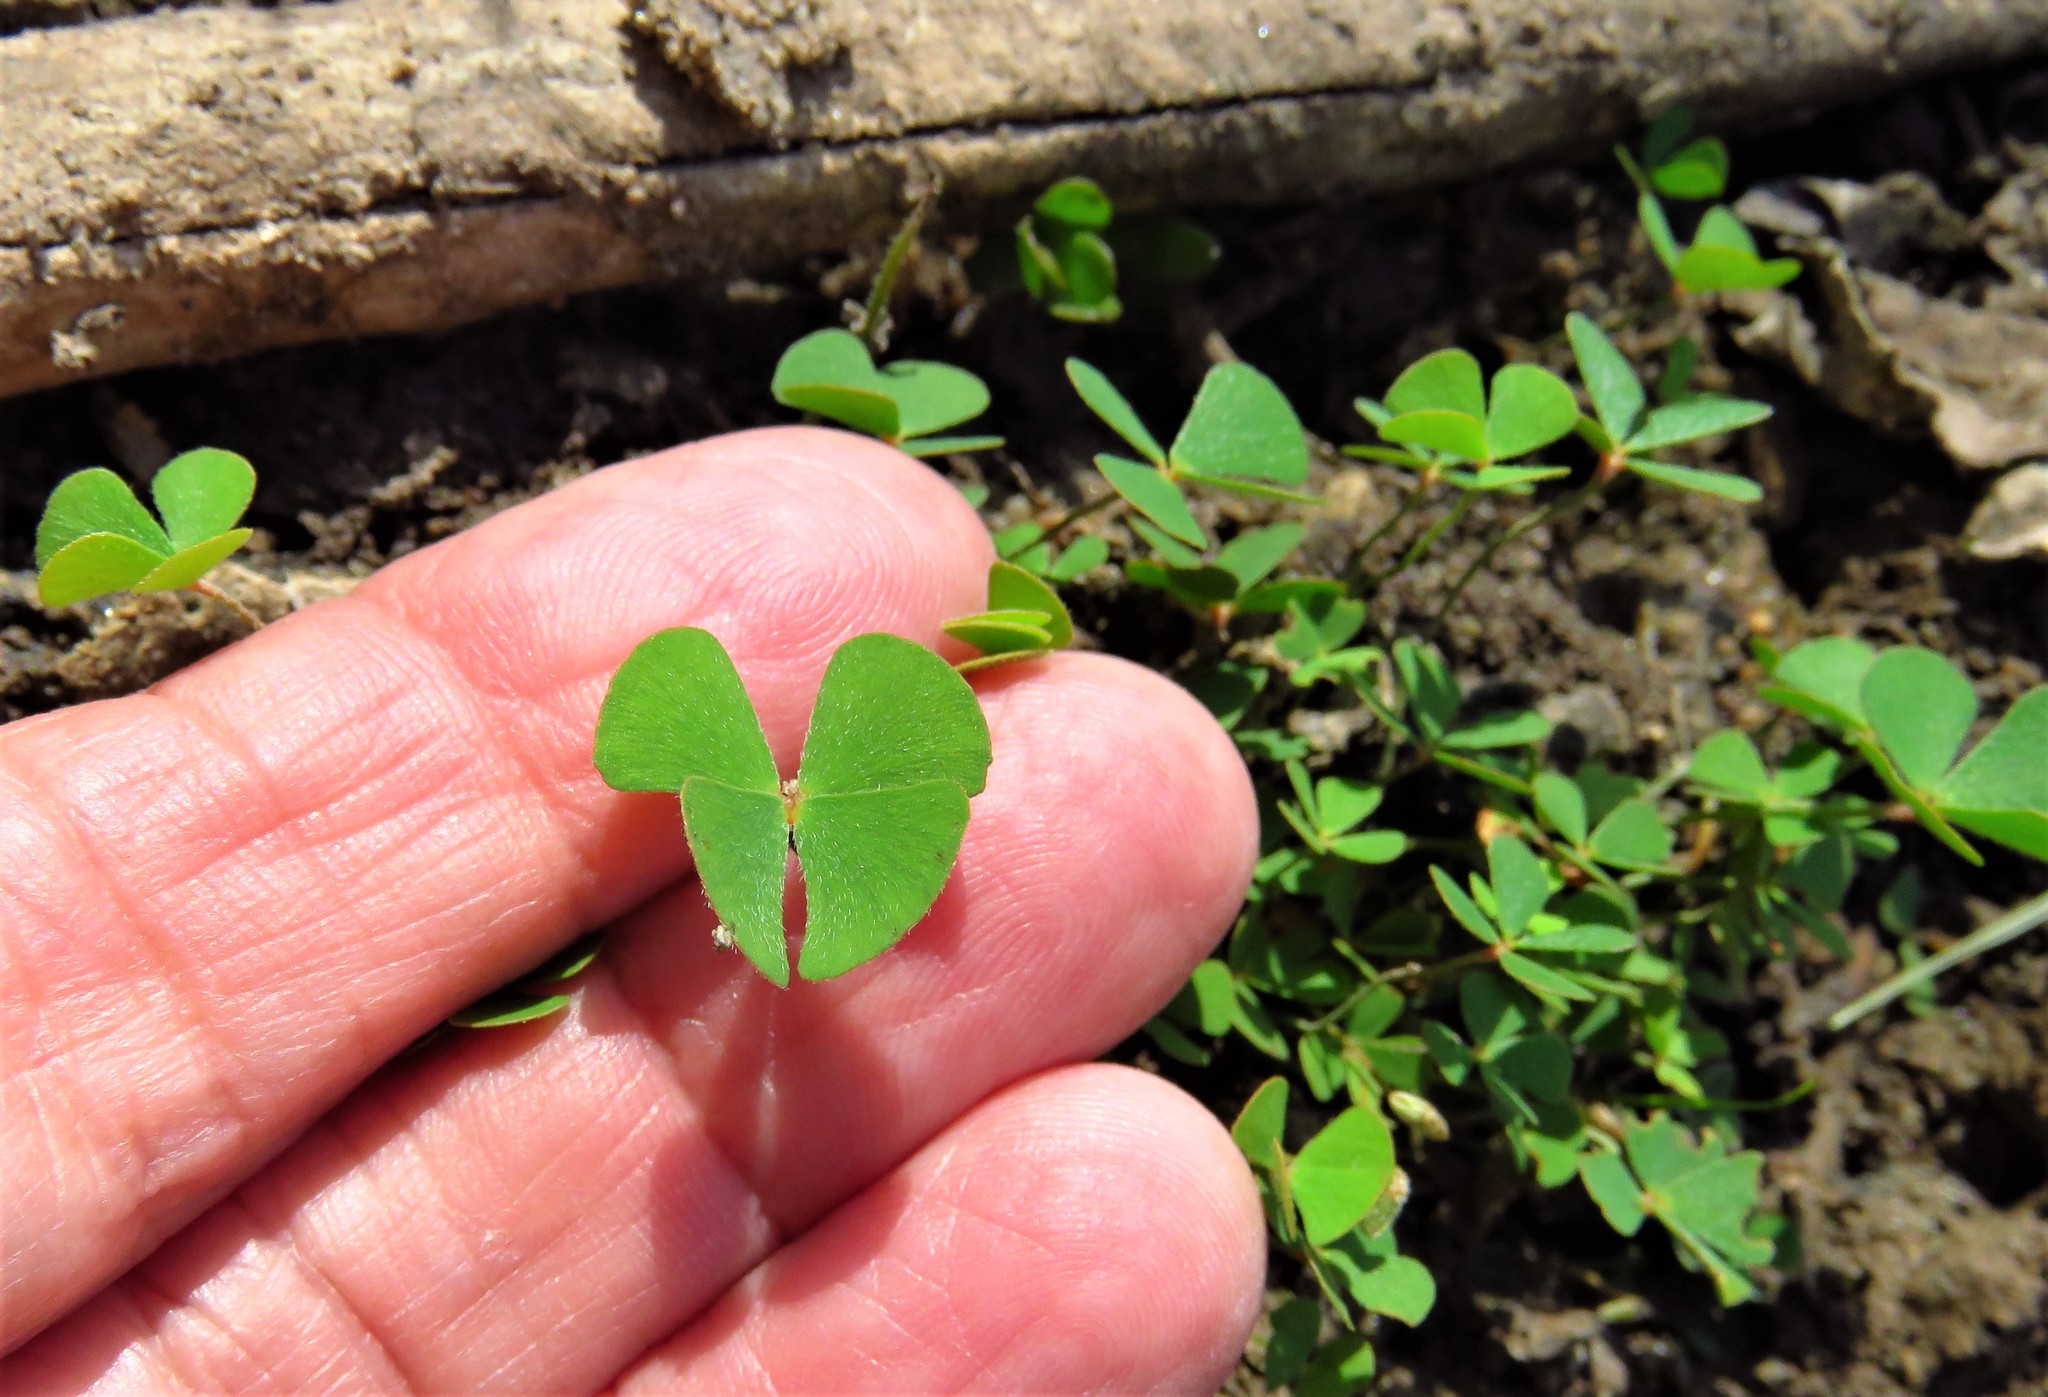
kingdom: Plantae
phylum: Tracheophyta
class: Polypodiopsida
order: Salviniales
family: Marsileaceae
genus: Marsilea
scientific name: Marsilea vestita
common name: Hooked-pepperwort
